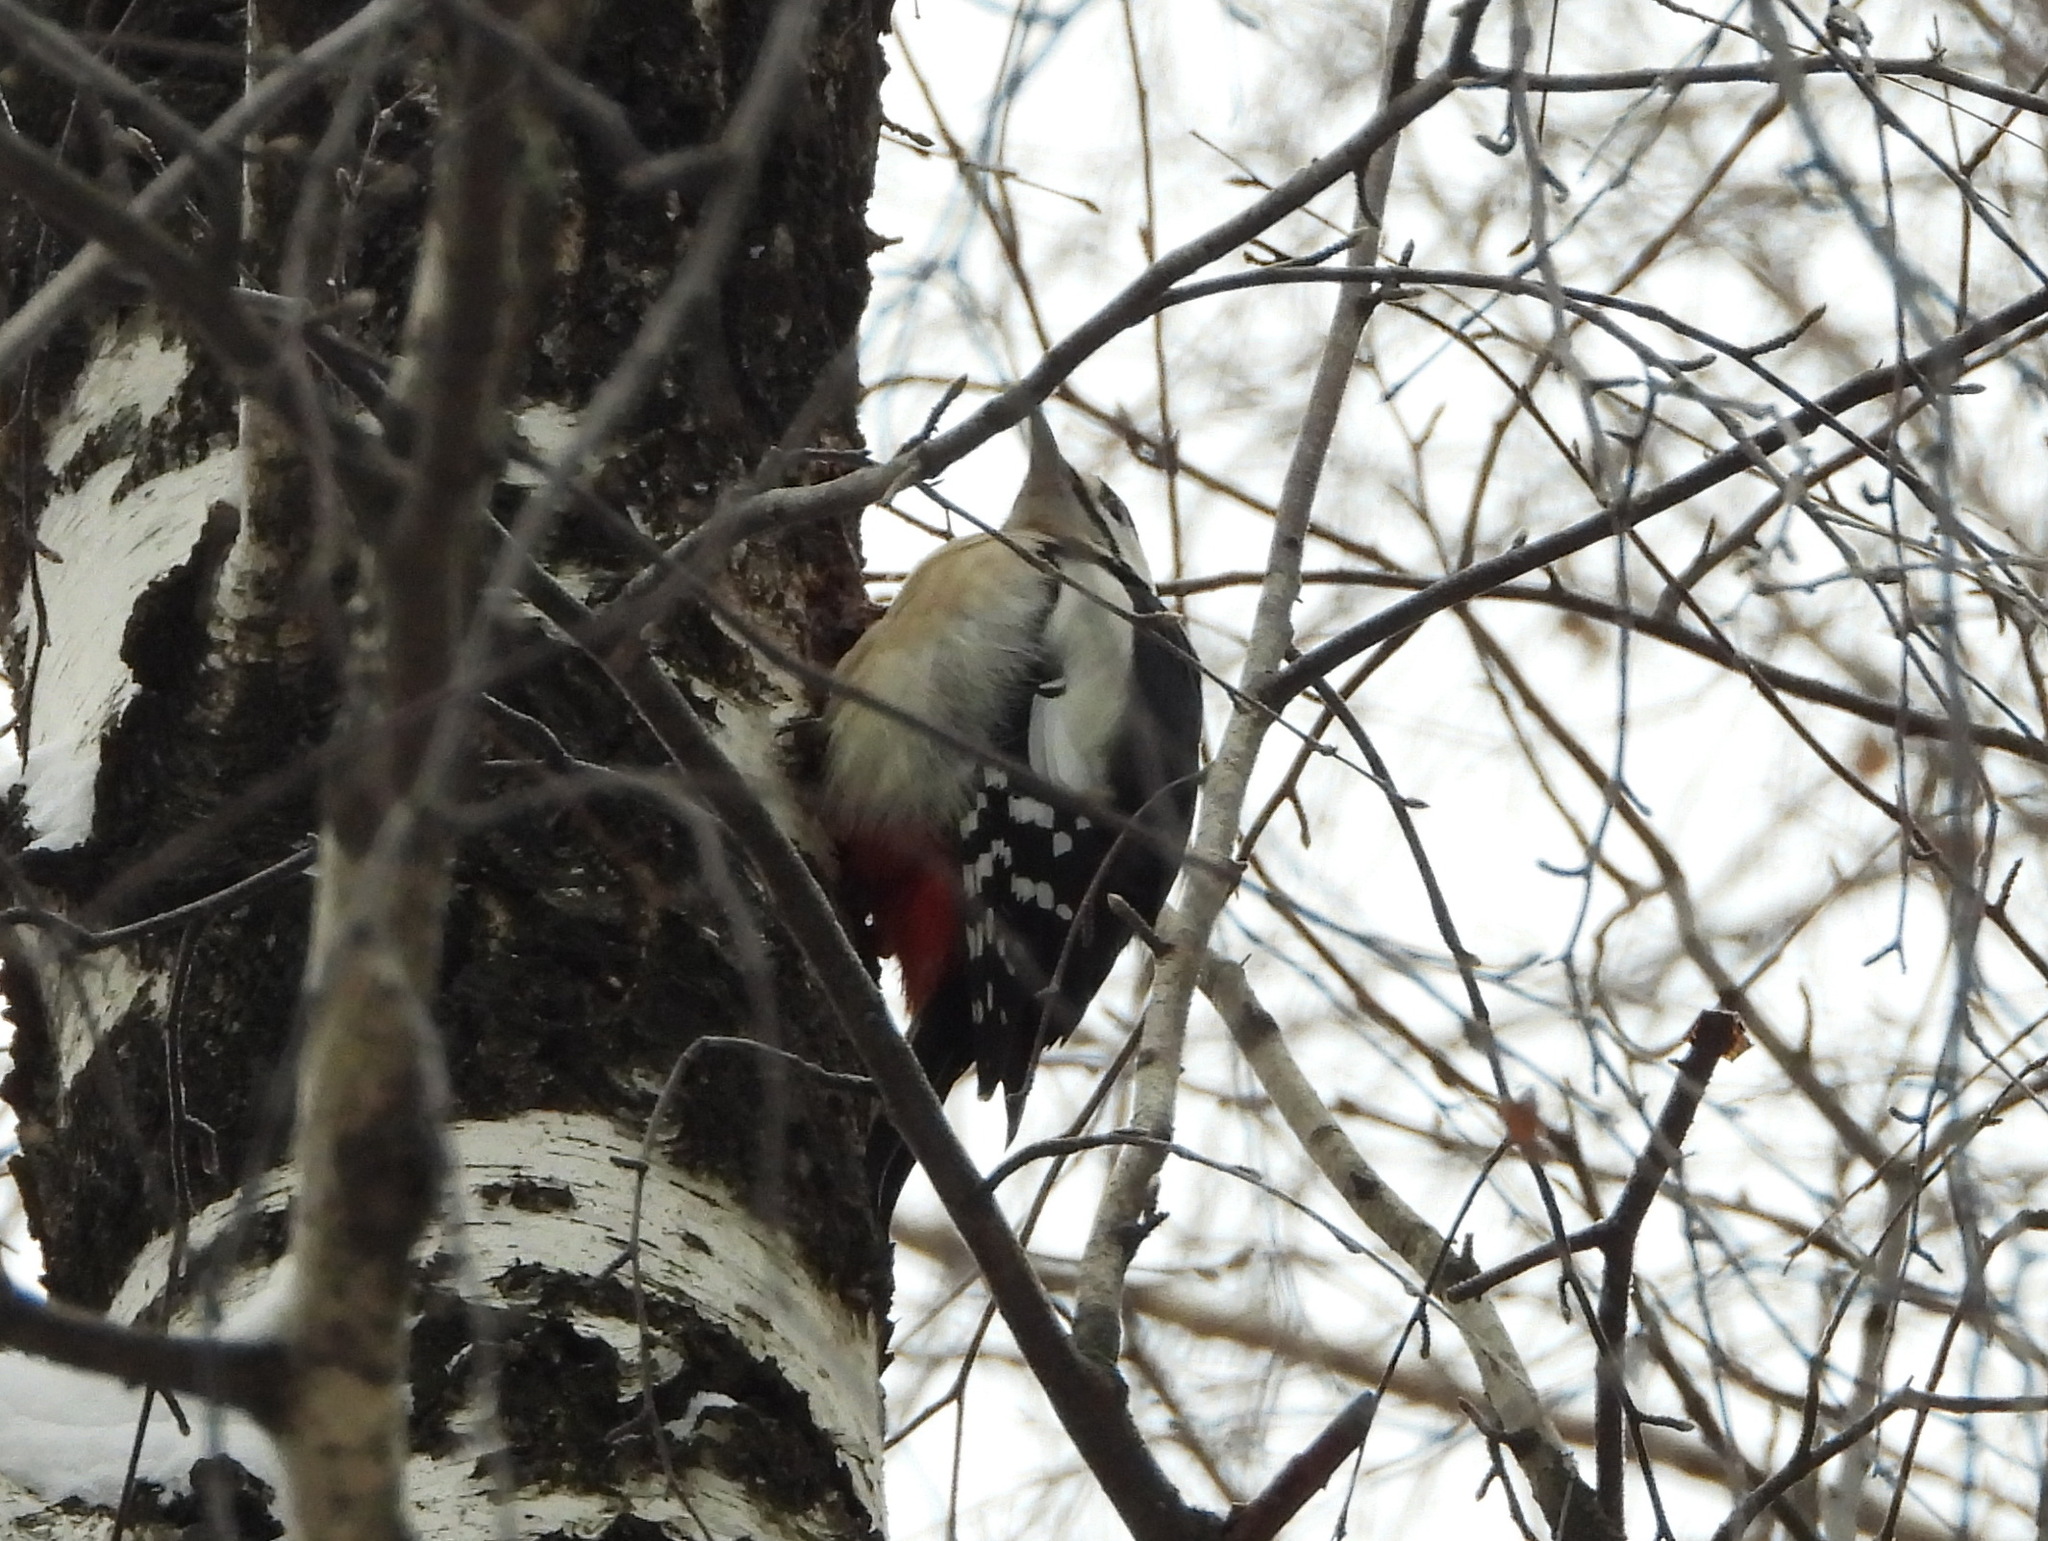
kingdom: Animalia
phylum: Chordata
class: Aves
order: Piciformes
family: Picidae
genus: Dendrocopos
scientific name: Dendrocopos major
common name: Great spotted woodpecker
